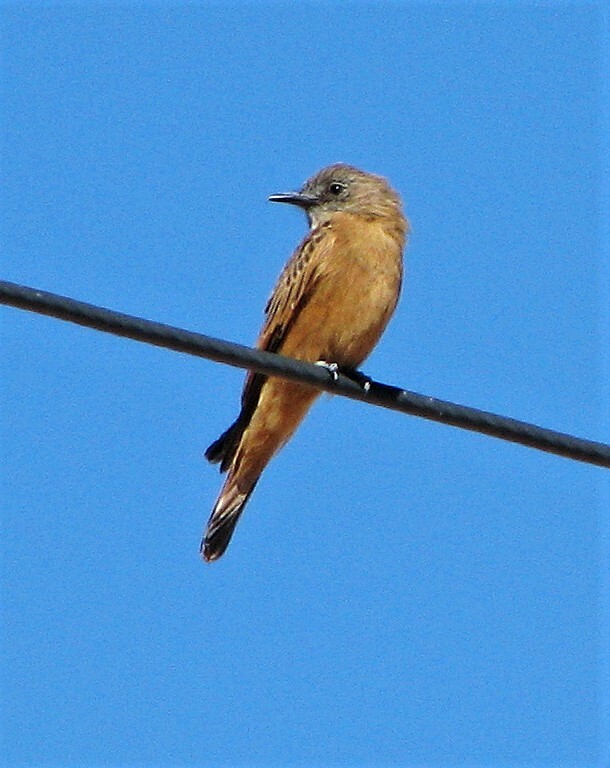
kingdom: Animalia
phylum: Chordata
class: Aves
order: Passeriformes
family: Tyrannidae
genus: Hirundinea
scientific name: Hirundinea ferruginea
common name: Cliff flycatcher
